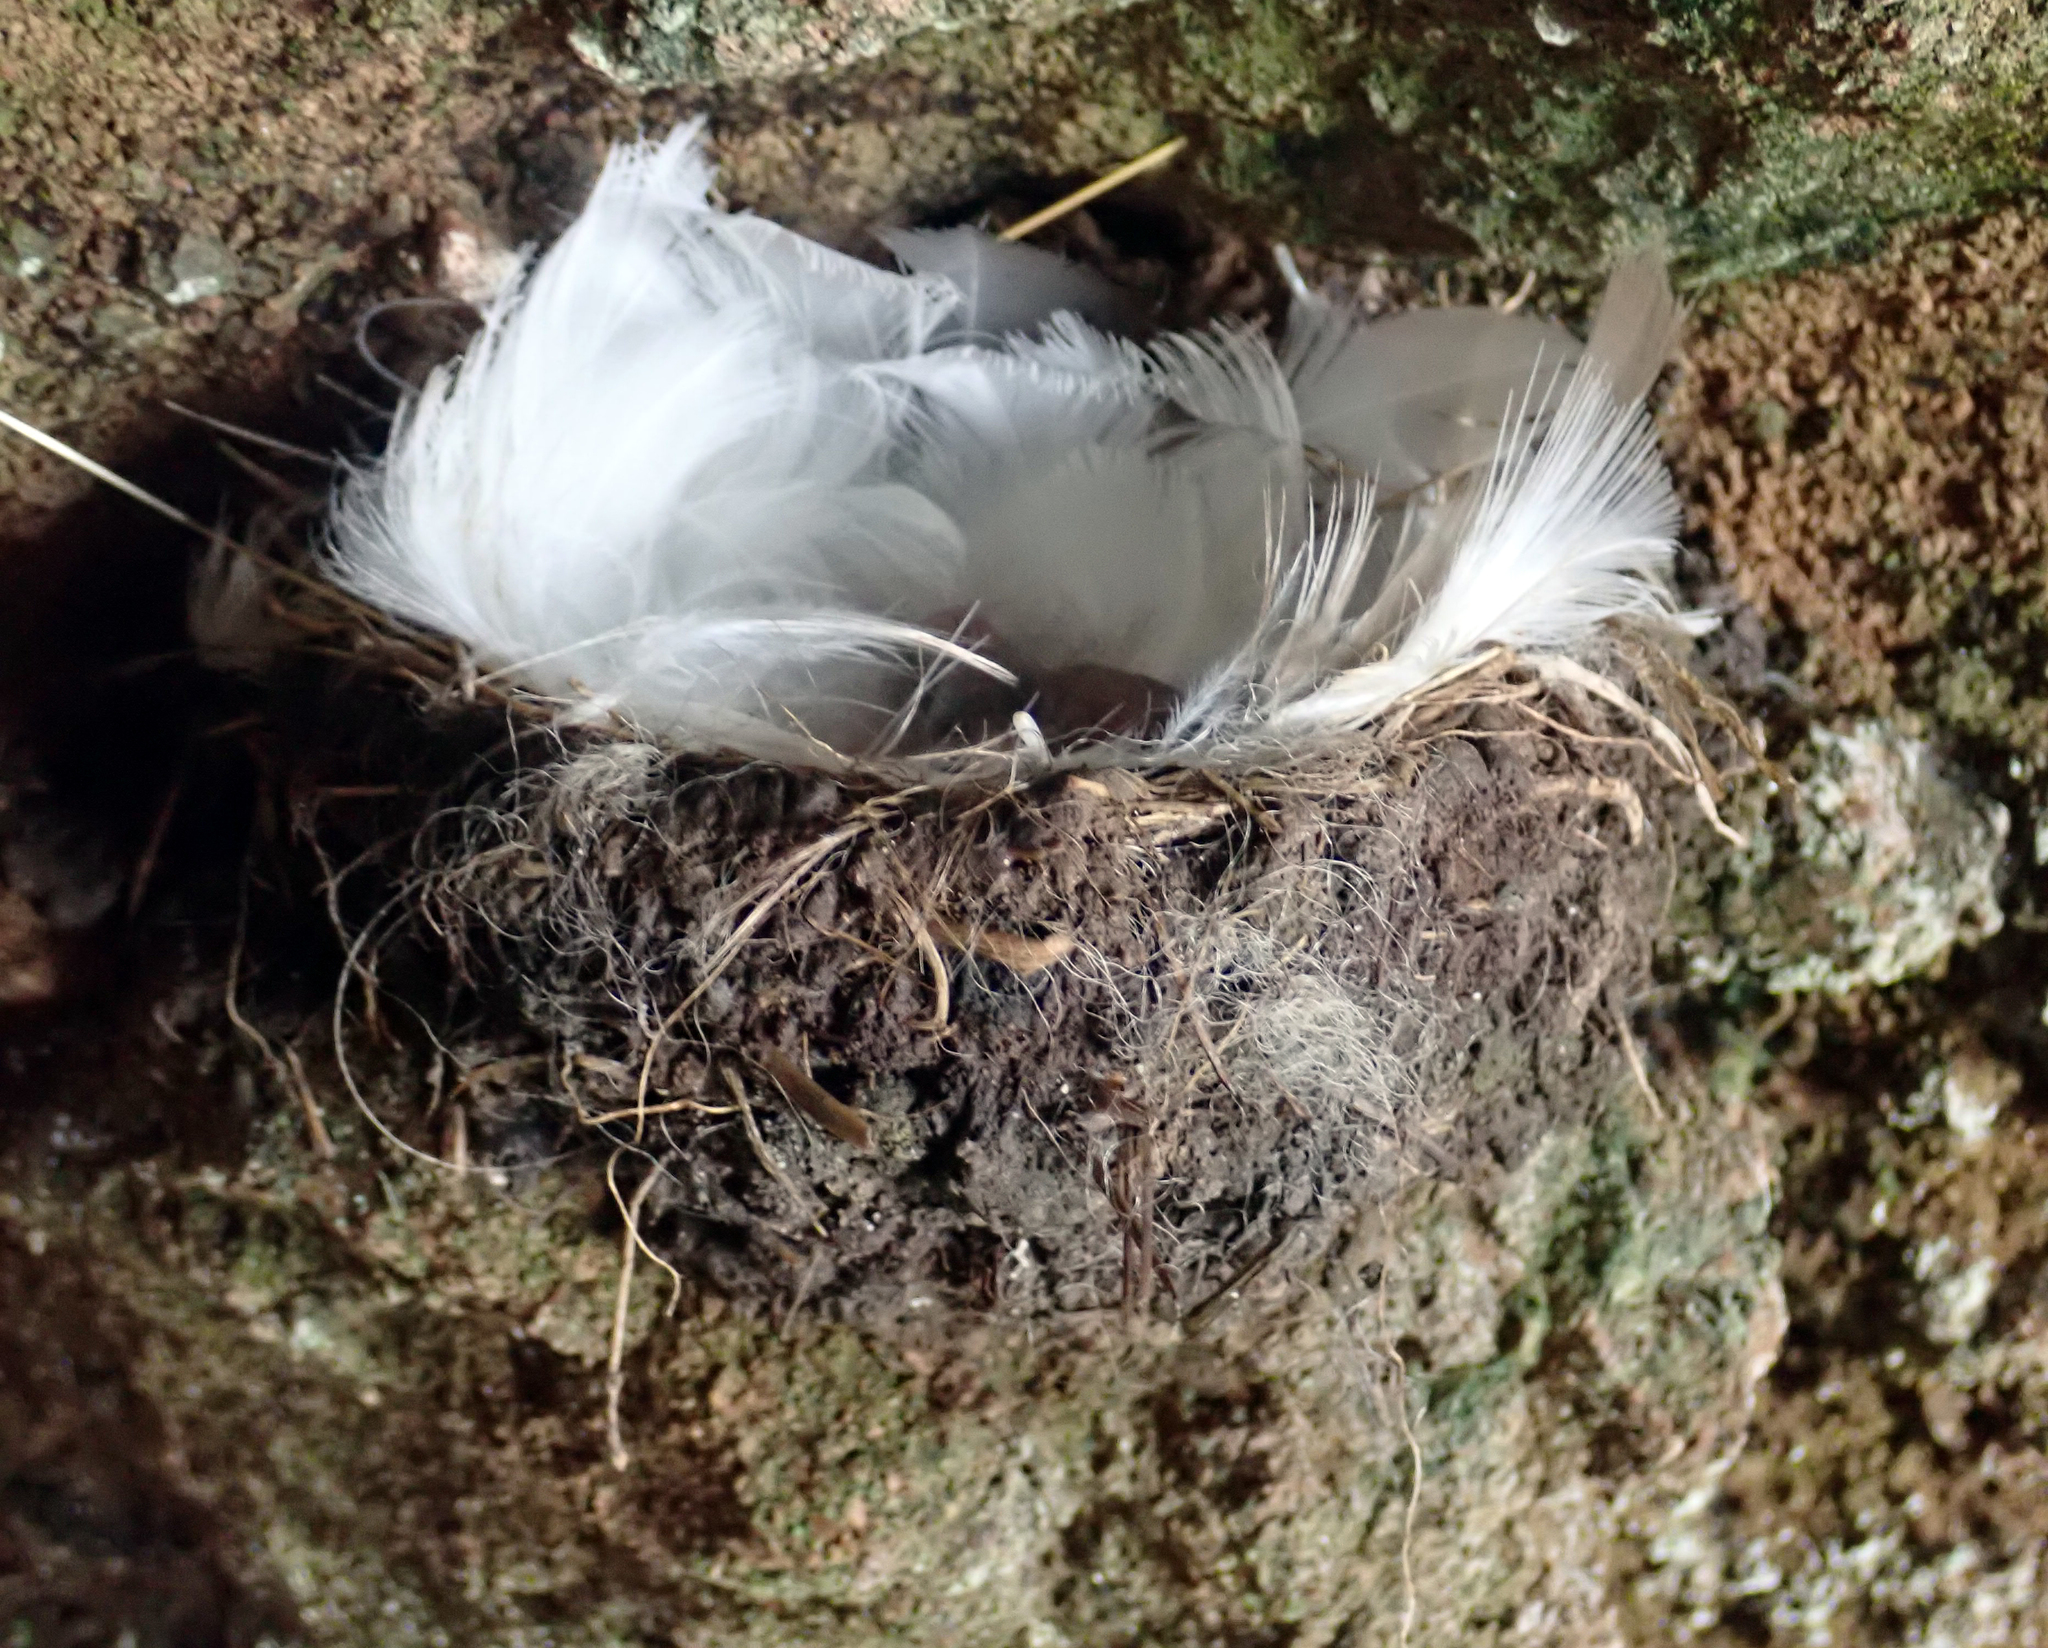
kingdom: Animalia
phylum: Chordata
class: Aves
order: Passeriformes
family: Hirundinidae
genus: Hirundo
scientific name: Hirundo neoxena
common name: Welcome swallow
